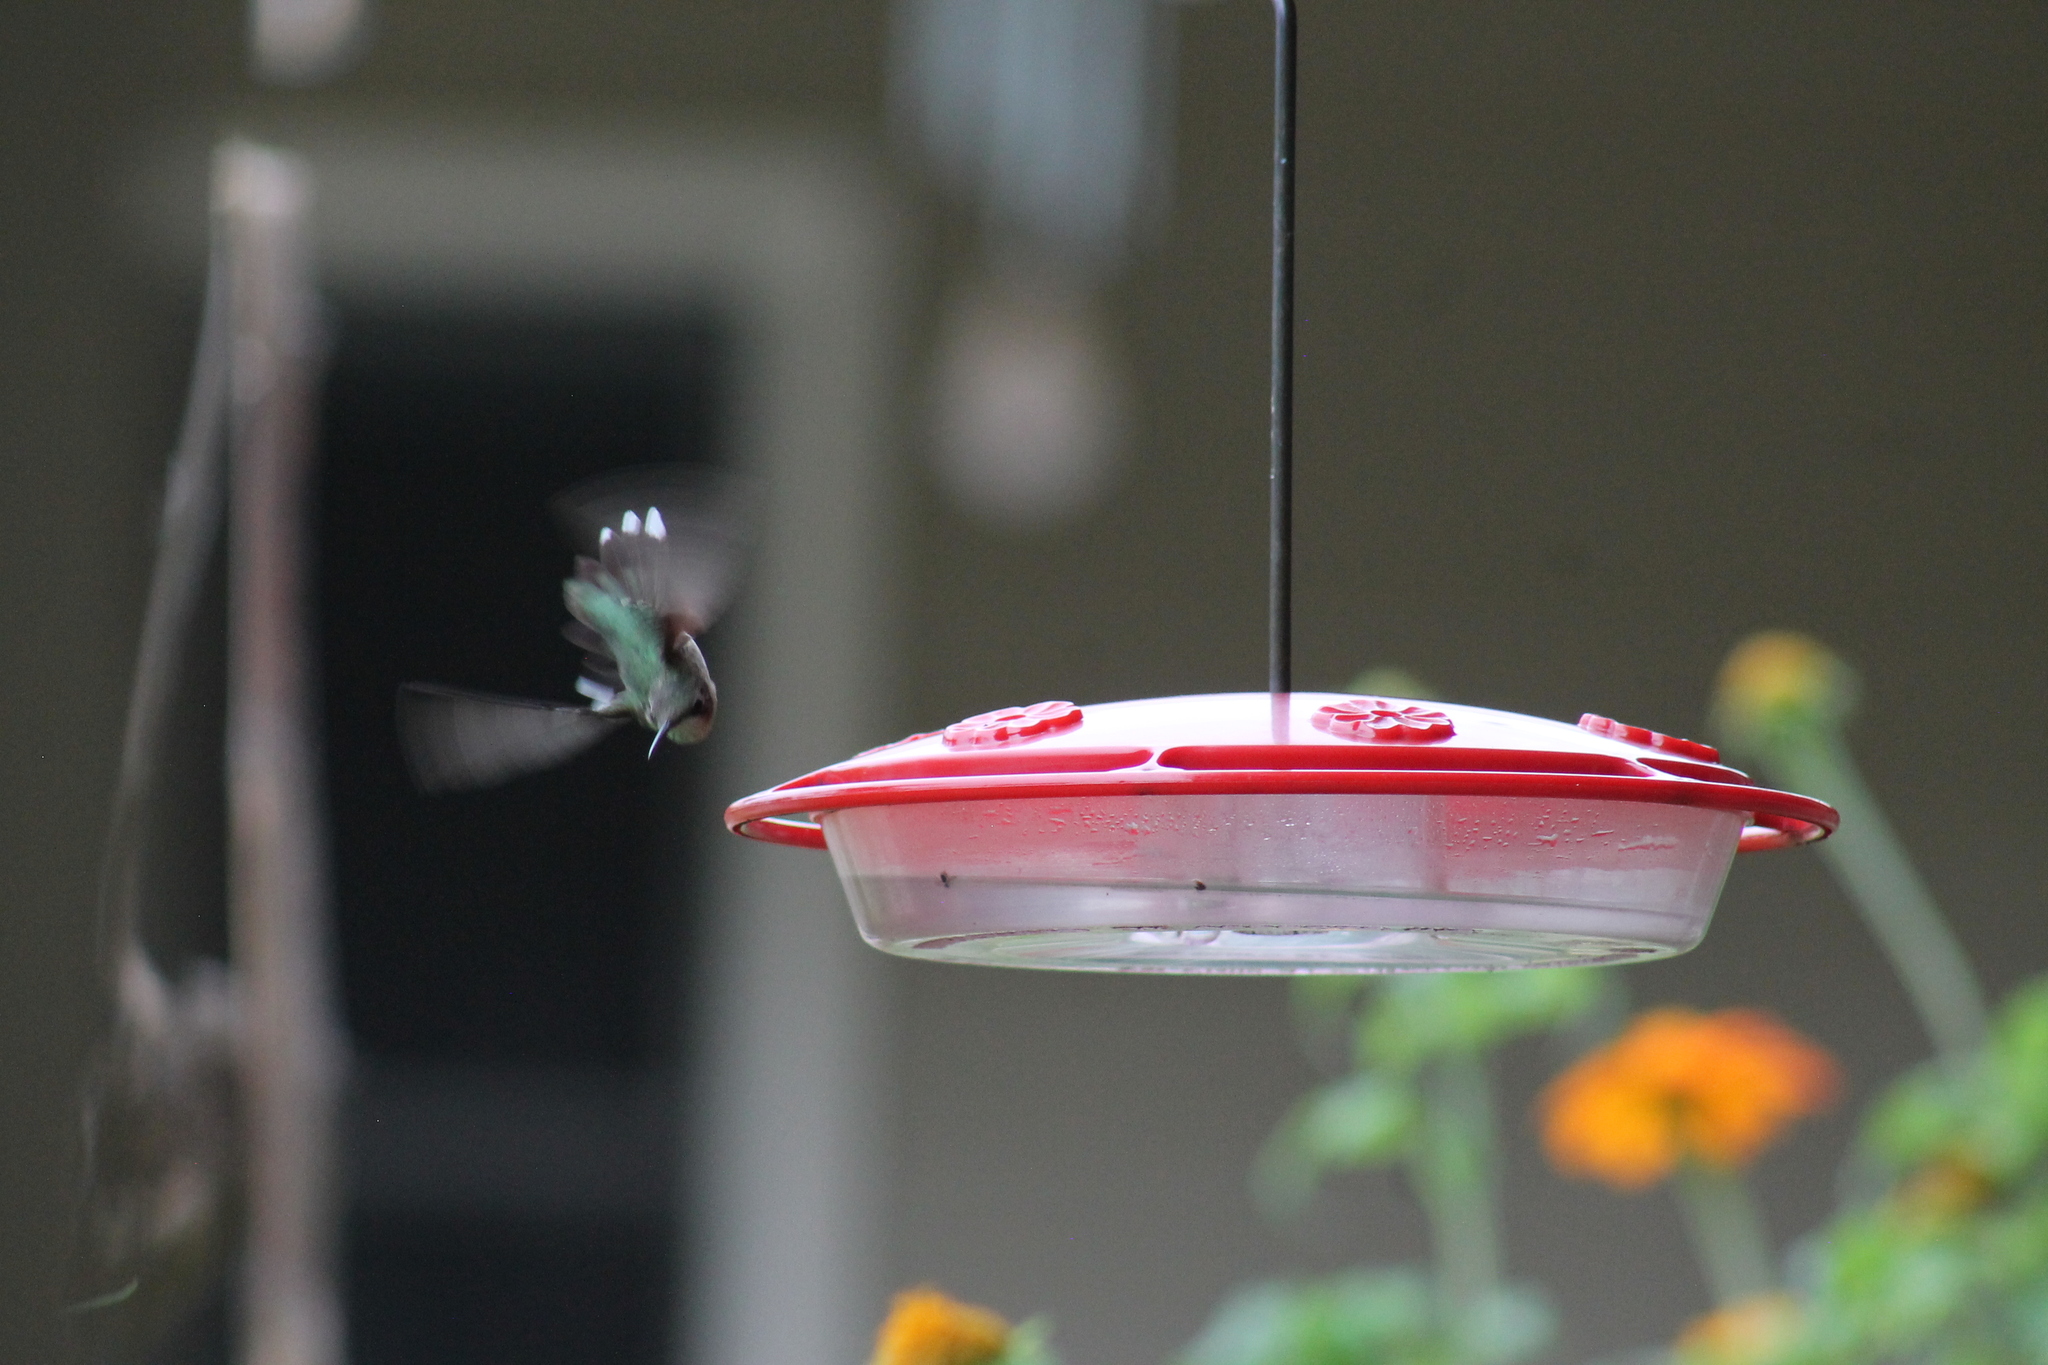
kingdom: Animalia
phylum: Chordata
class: Aves
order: Apodiformes
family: Trochilidae
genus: Archilochus
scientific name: Archilochus colubris
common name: Ruby-throated hummingbird
